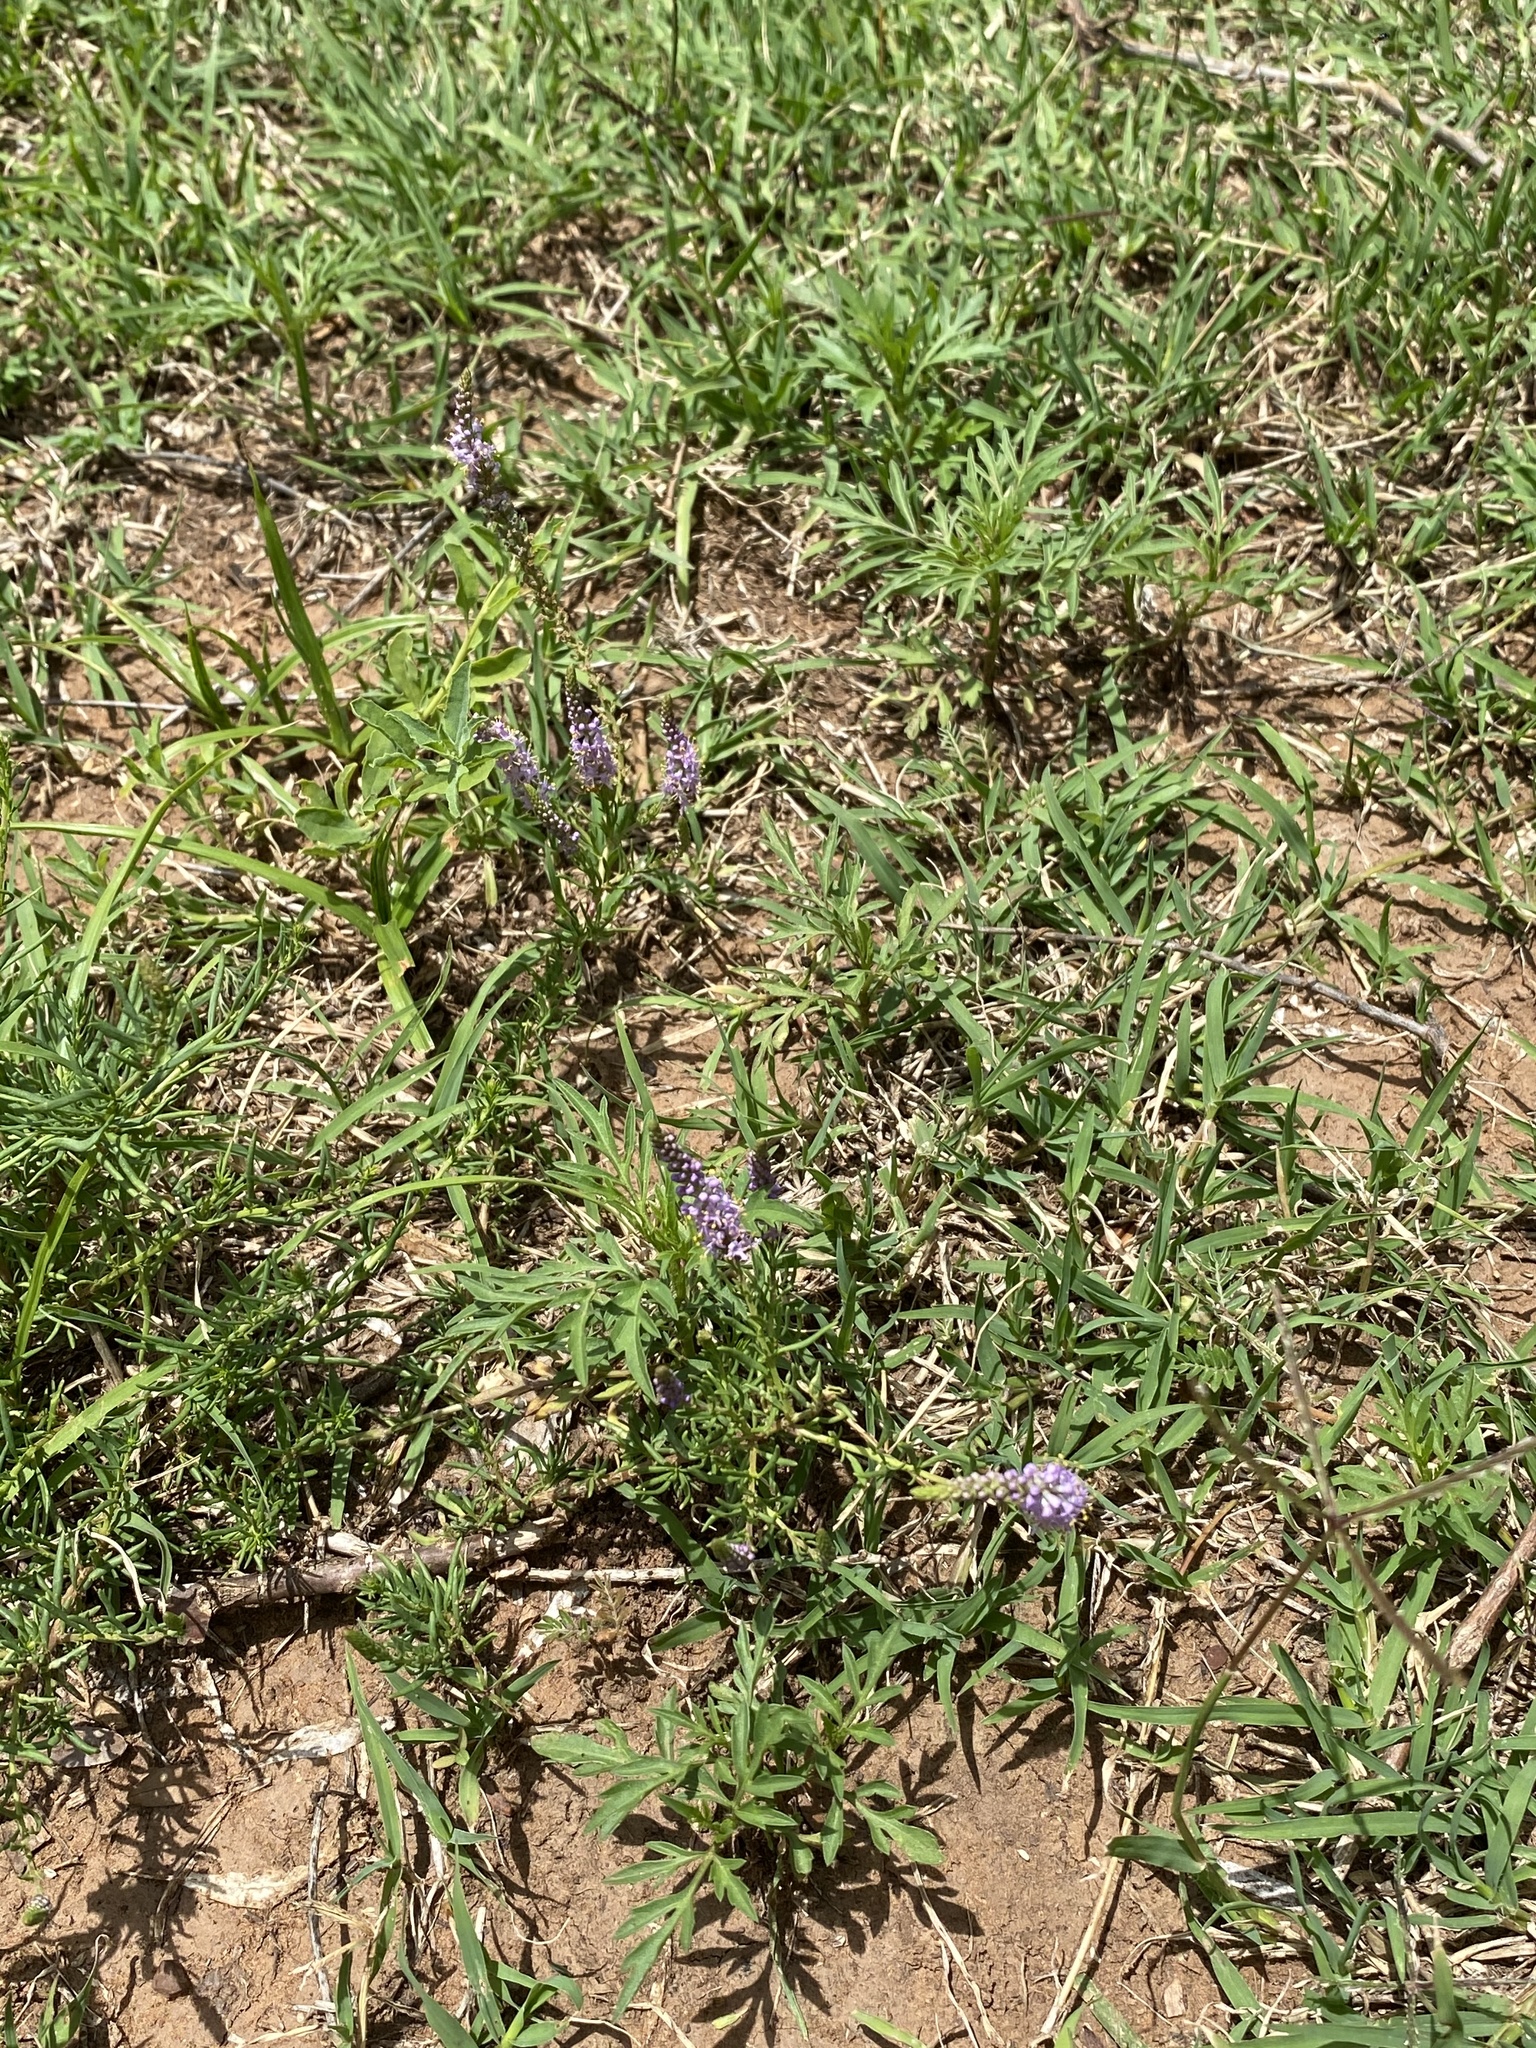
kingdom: Plantae
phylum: Tracheophyta
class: Magnoliopsida
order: Lamiales
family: Scrophulariaceae
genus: Selago
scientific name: Selago geniculata
